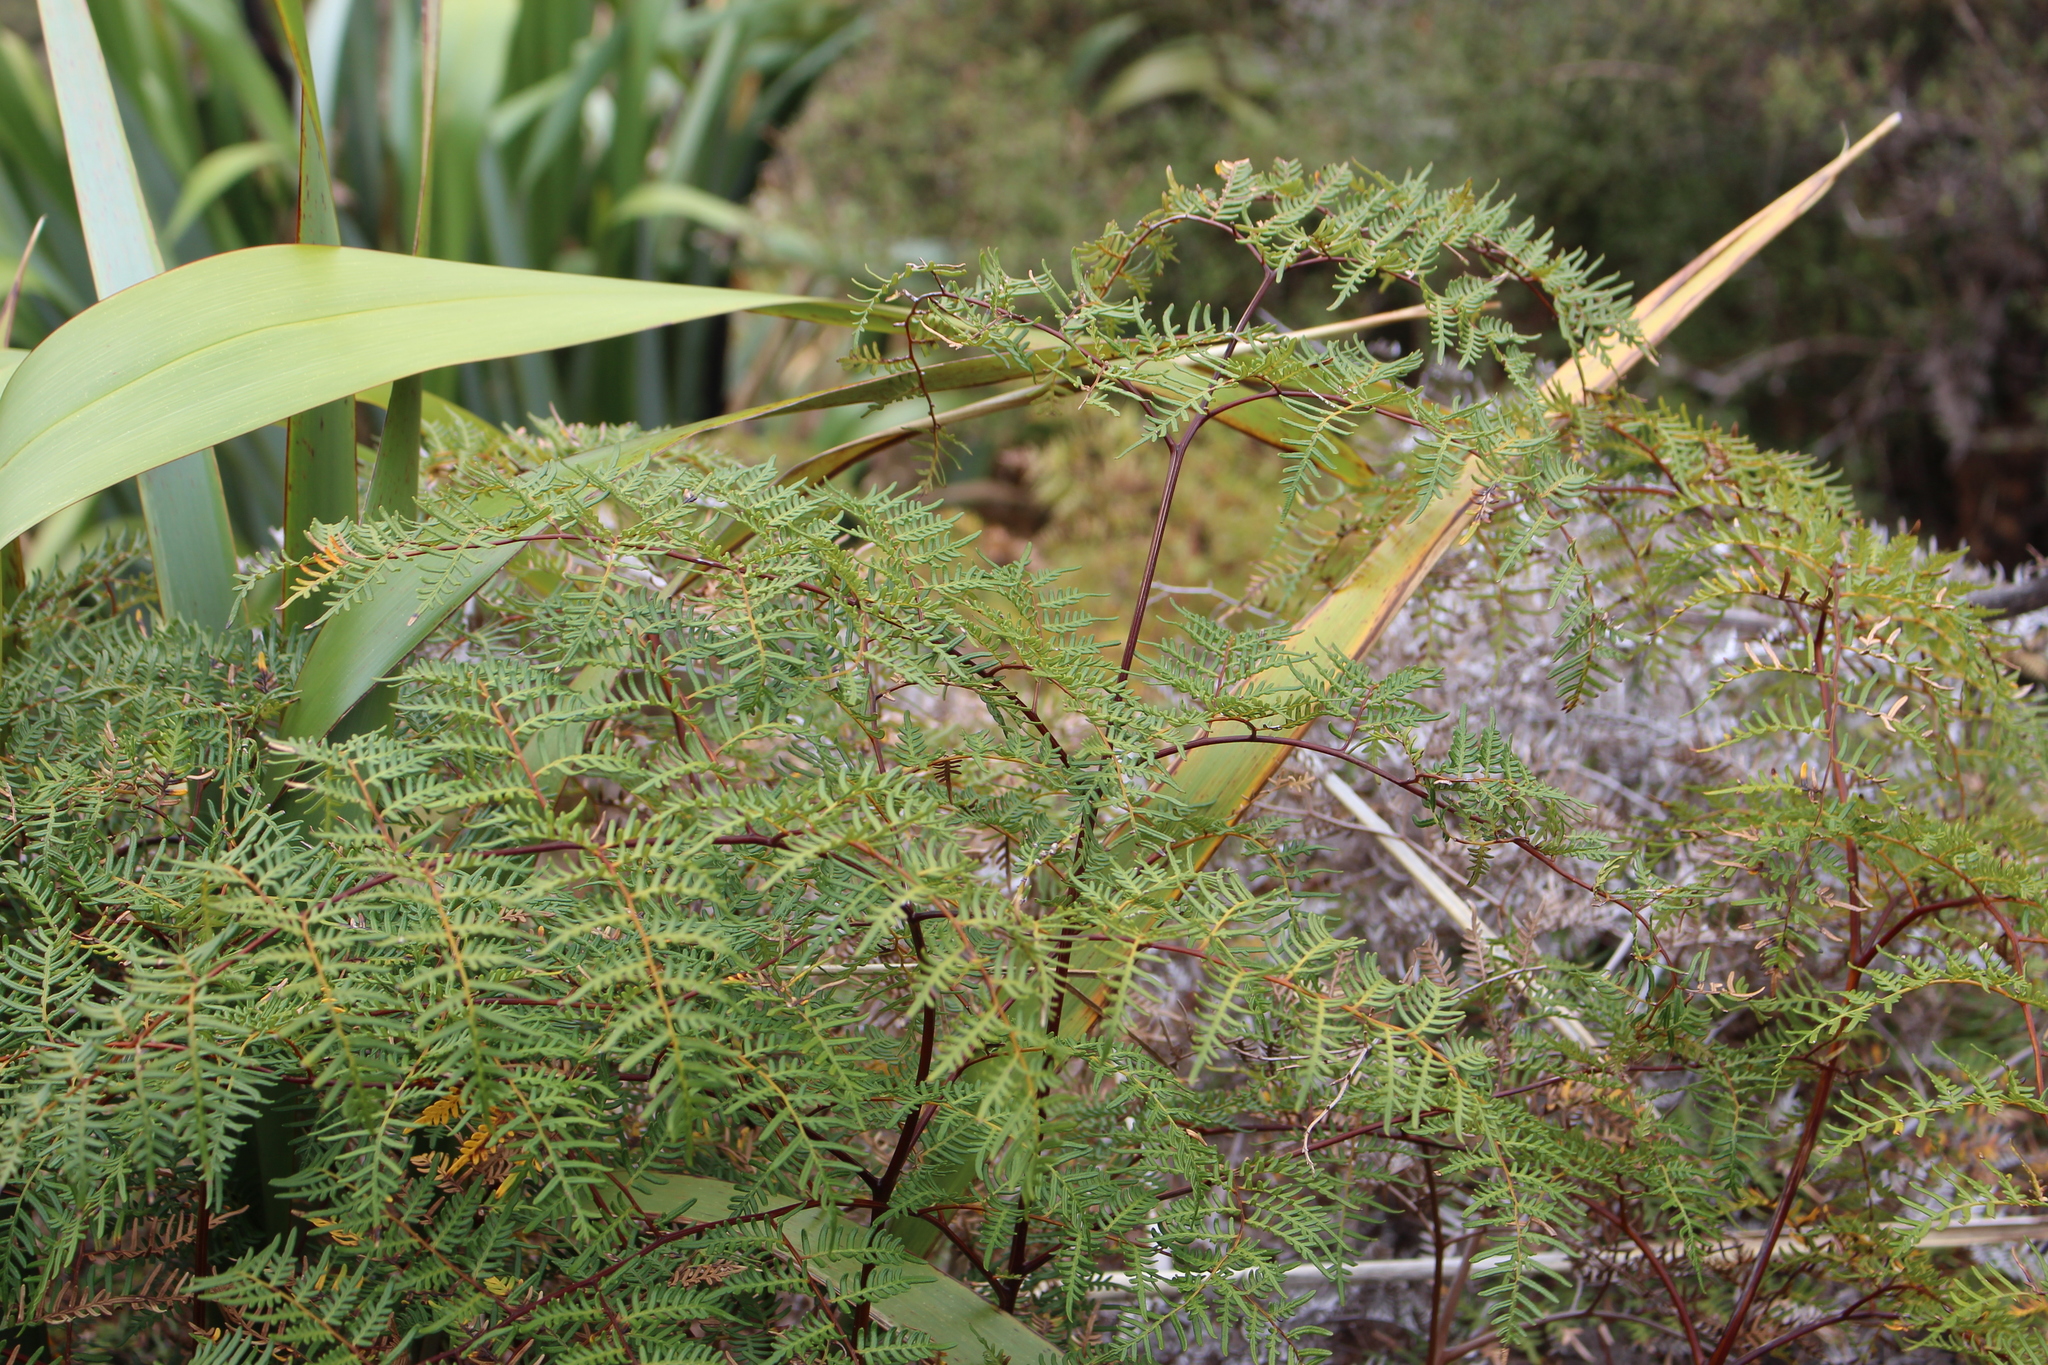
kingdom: Plantae
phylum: Tracheophyta
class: Polypodiopsida
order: Polypodiales
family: Dennstaedtiaceae
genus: Pteridium
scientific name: Pteridium esculentum
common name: Bracken fern
